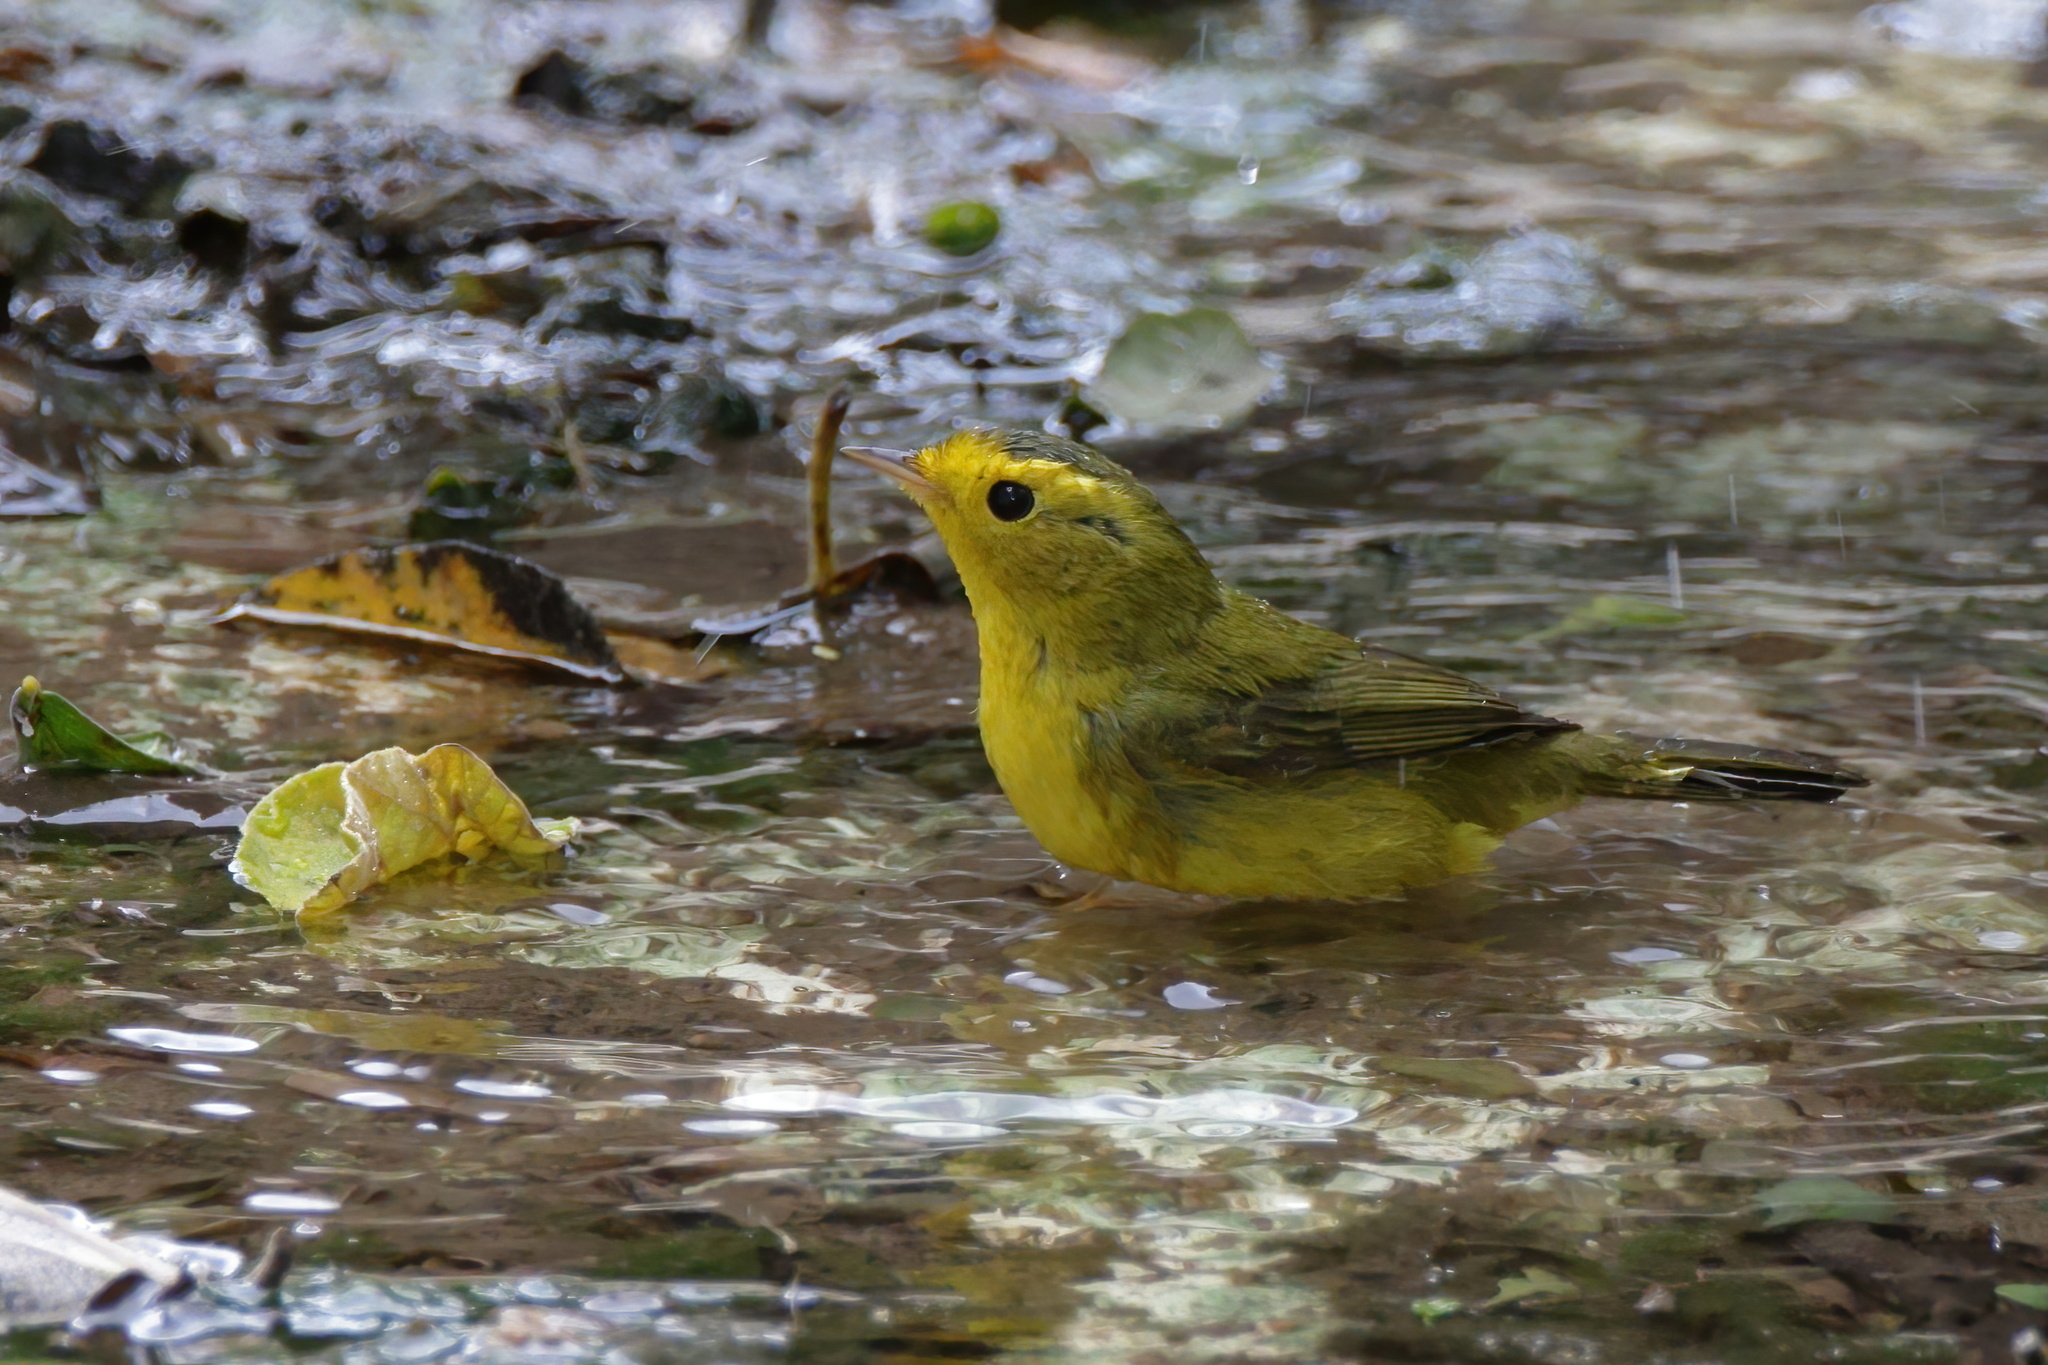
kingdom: Animalia
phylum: Chordata
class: Aves
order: Passeriformes
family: Parulidae
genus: Cardellina
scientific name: Cardellina pusilla
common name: Wilson's warbler
